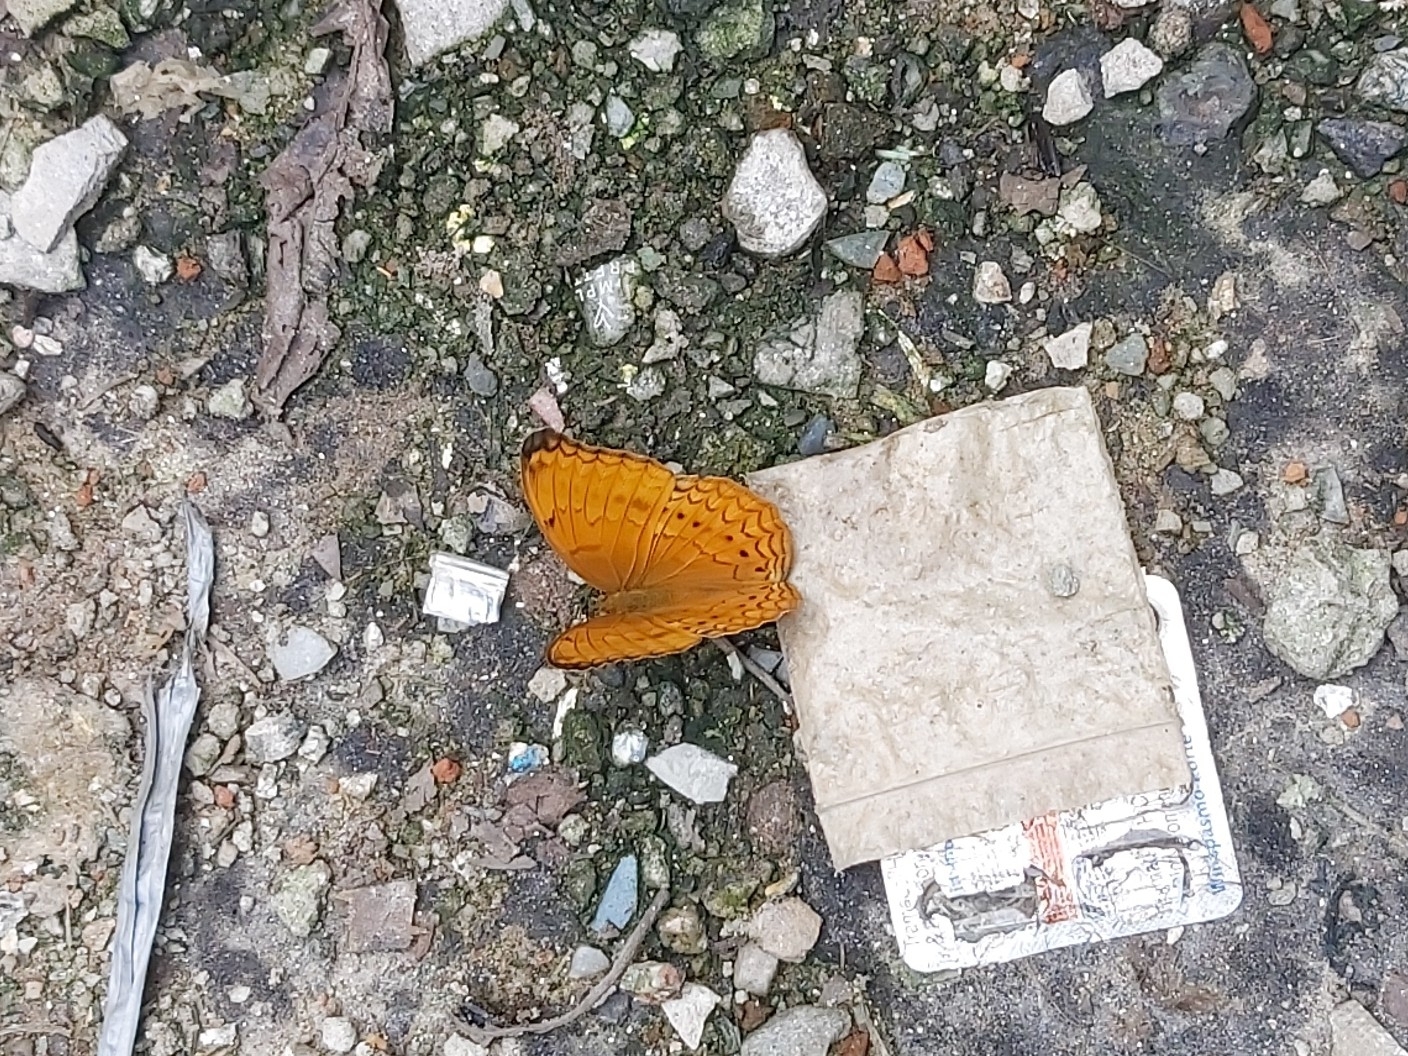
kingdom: Animalia
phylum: Arthropoda
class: Insecta
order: Lepidoptera
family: Nymphalidae
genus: Cirrochroa
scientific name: Cirrochroa aoris
